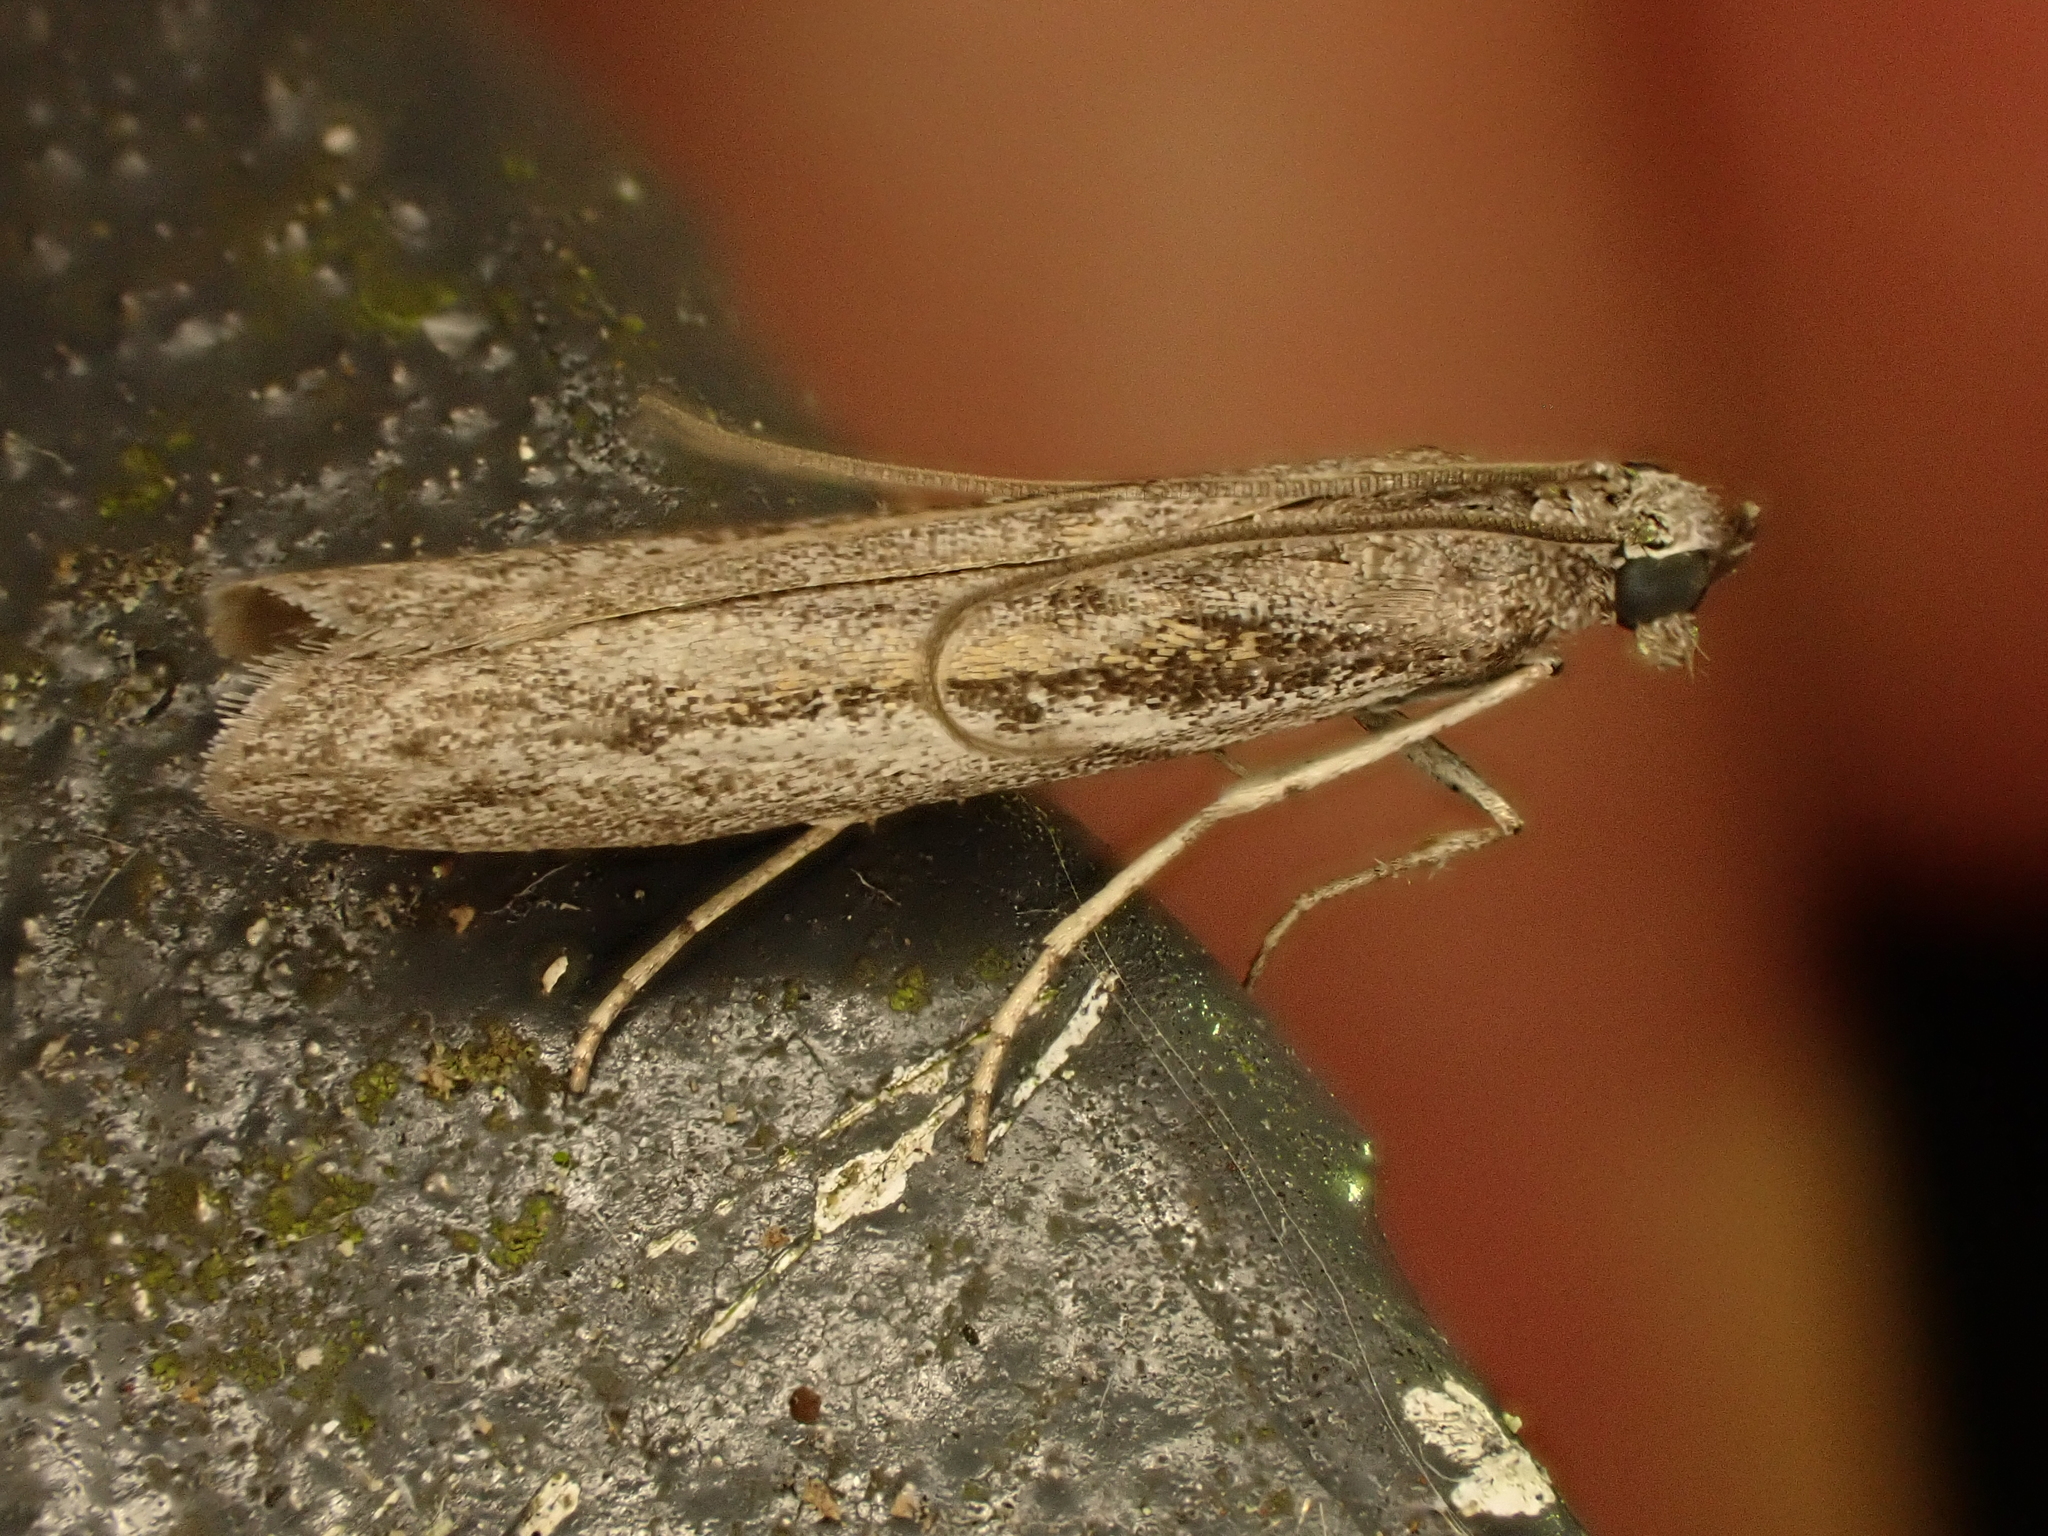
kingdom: Animalia
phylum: Arthropoda
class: Insecta
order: Lepidoptera
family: Pyralidae
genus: Homoeosoma
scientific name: Homoeosoma anaspila
